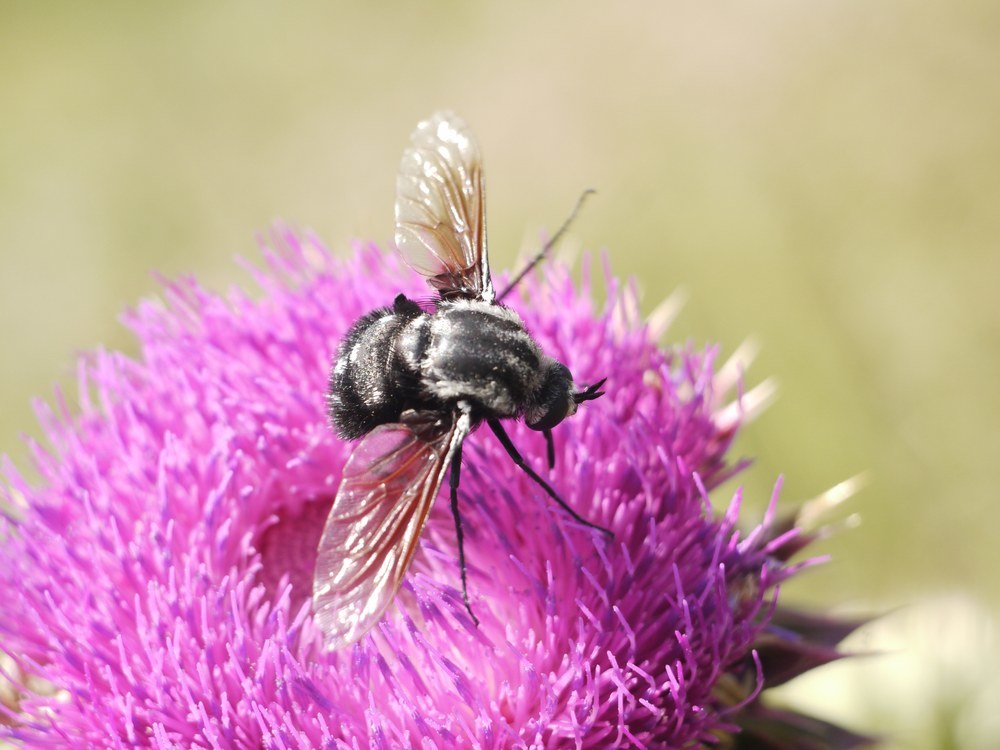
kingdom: Animalia
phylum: Arthropoda
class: Insecta
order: Diptera
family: Bombyliidae
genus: Bombomyia
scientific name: Bombomyia vertebralis
